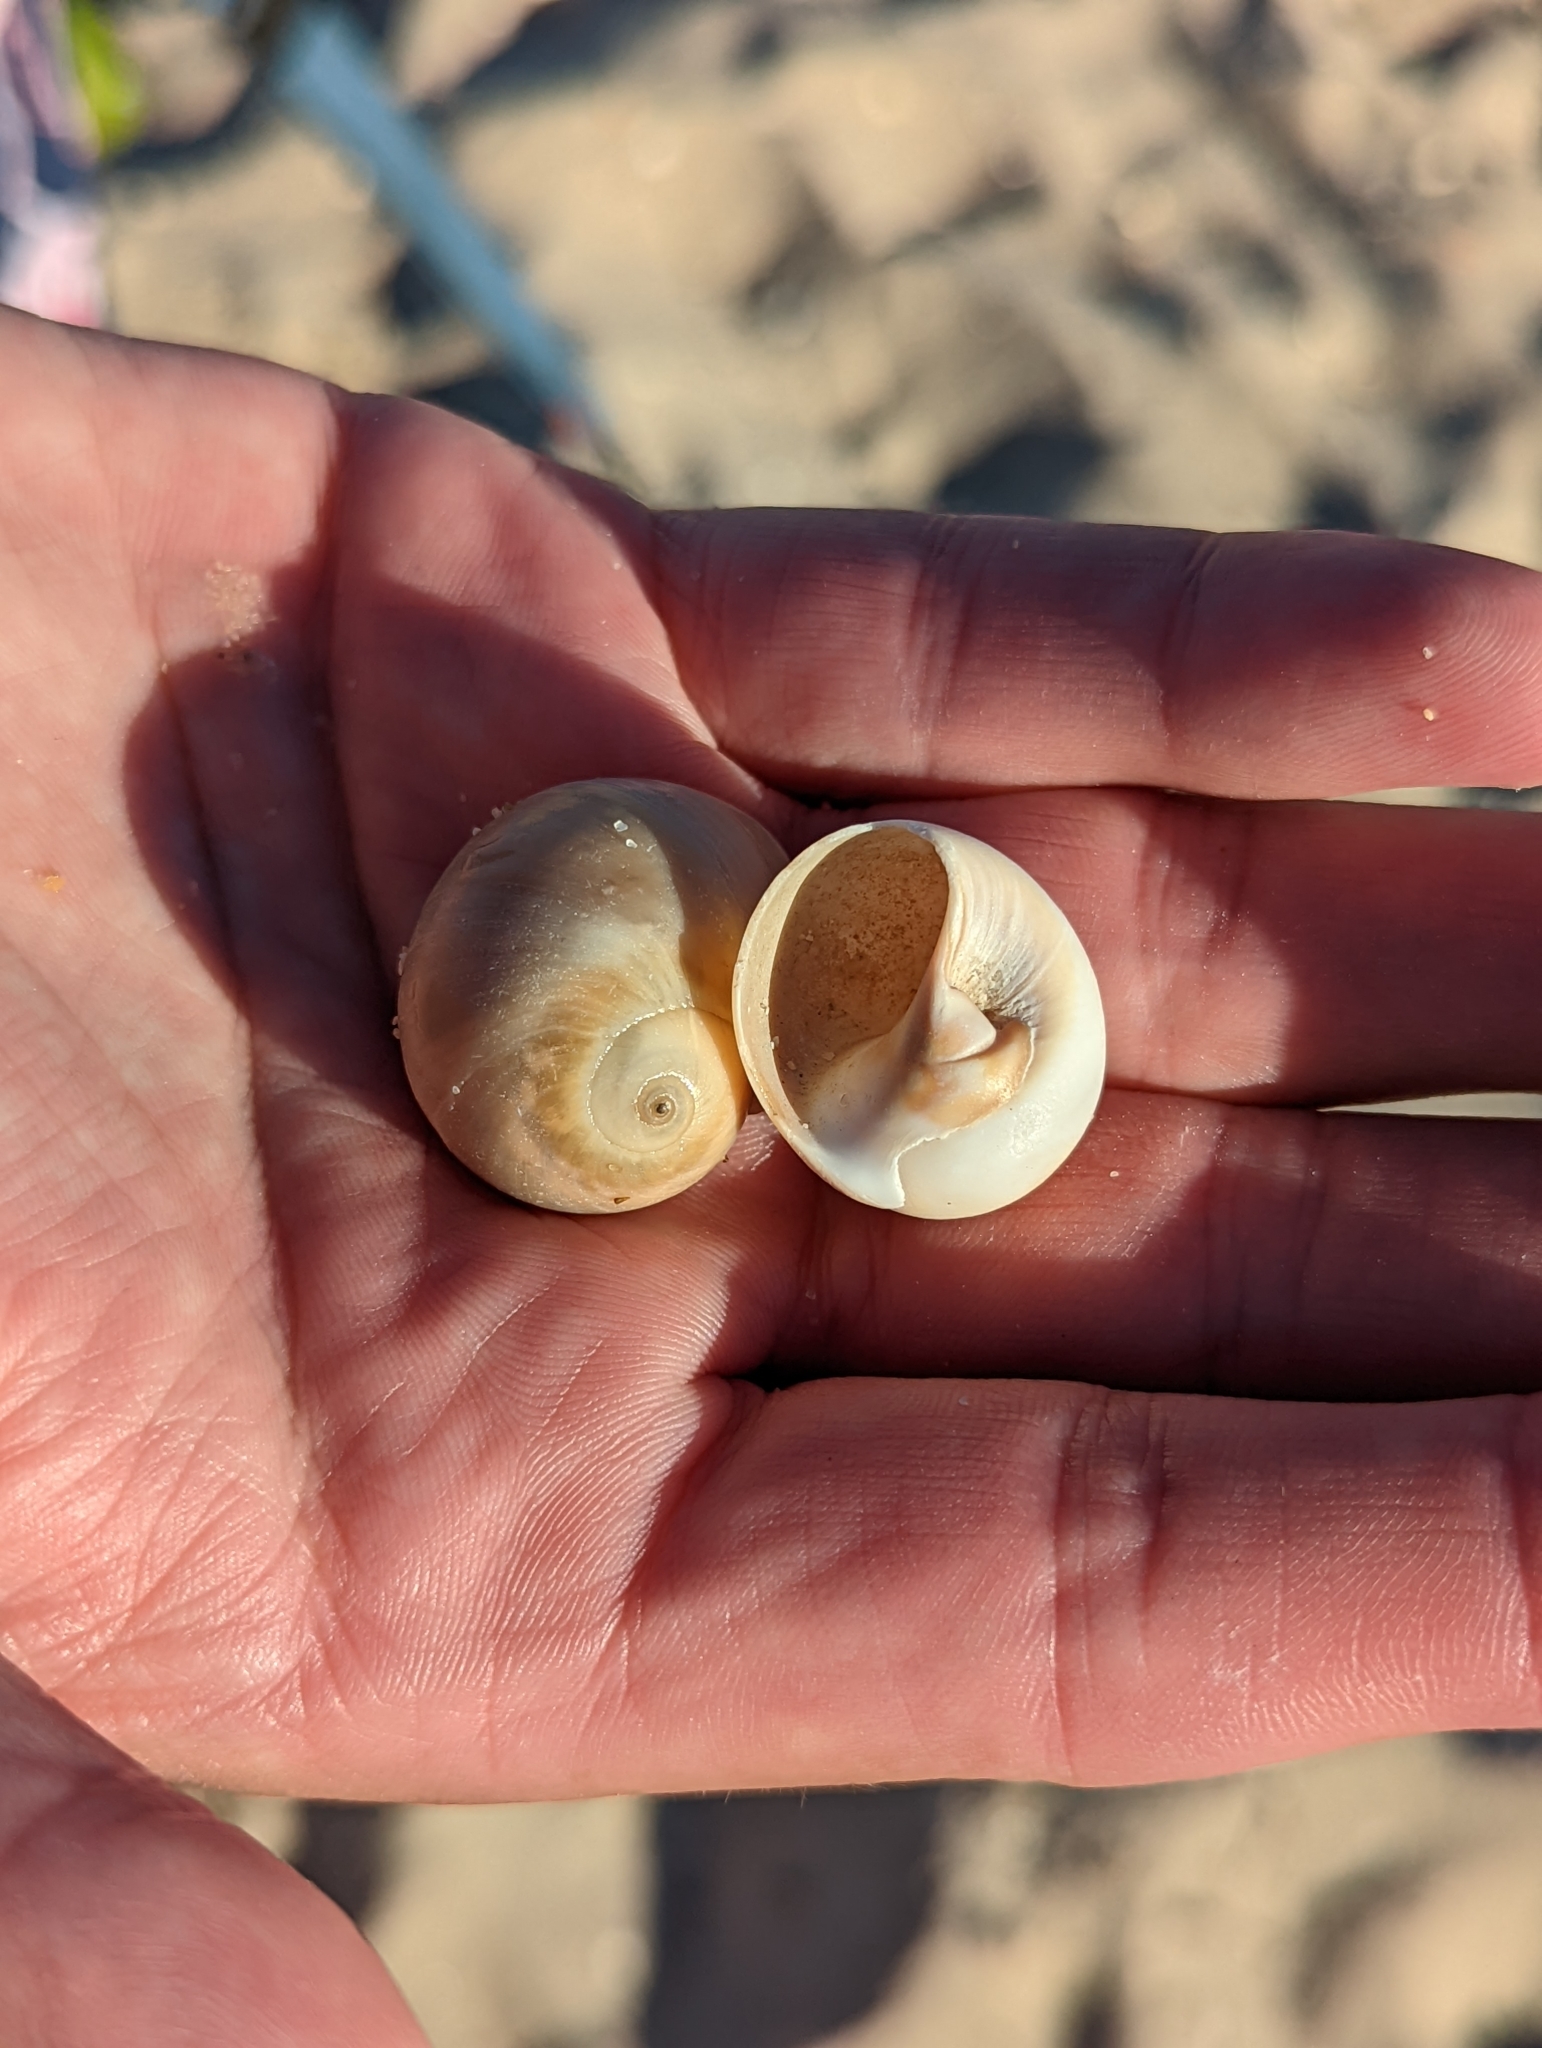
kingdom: Animalia
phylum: Mollusca
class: Gastropoda
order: Littorinimorpha
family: Naticidae
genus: Neverita
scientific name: Neverita didyma
